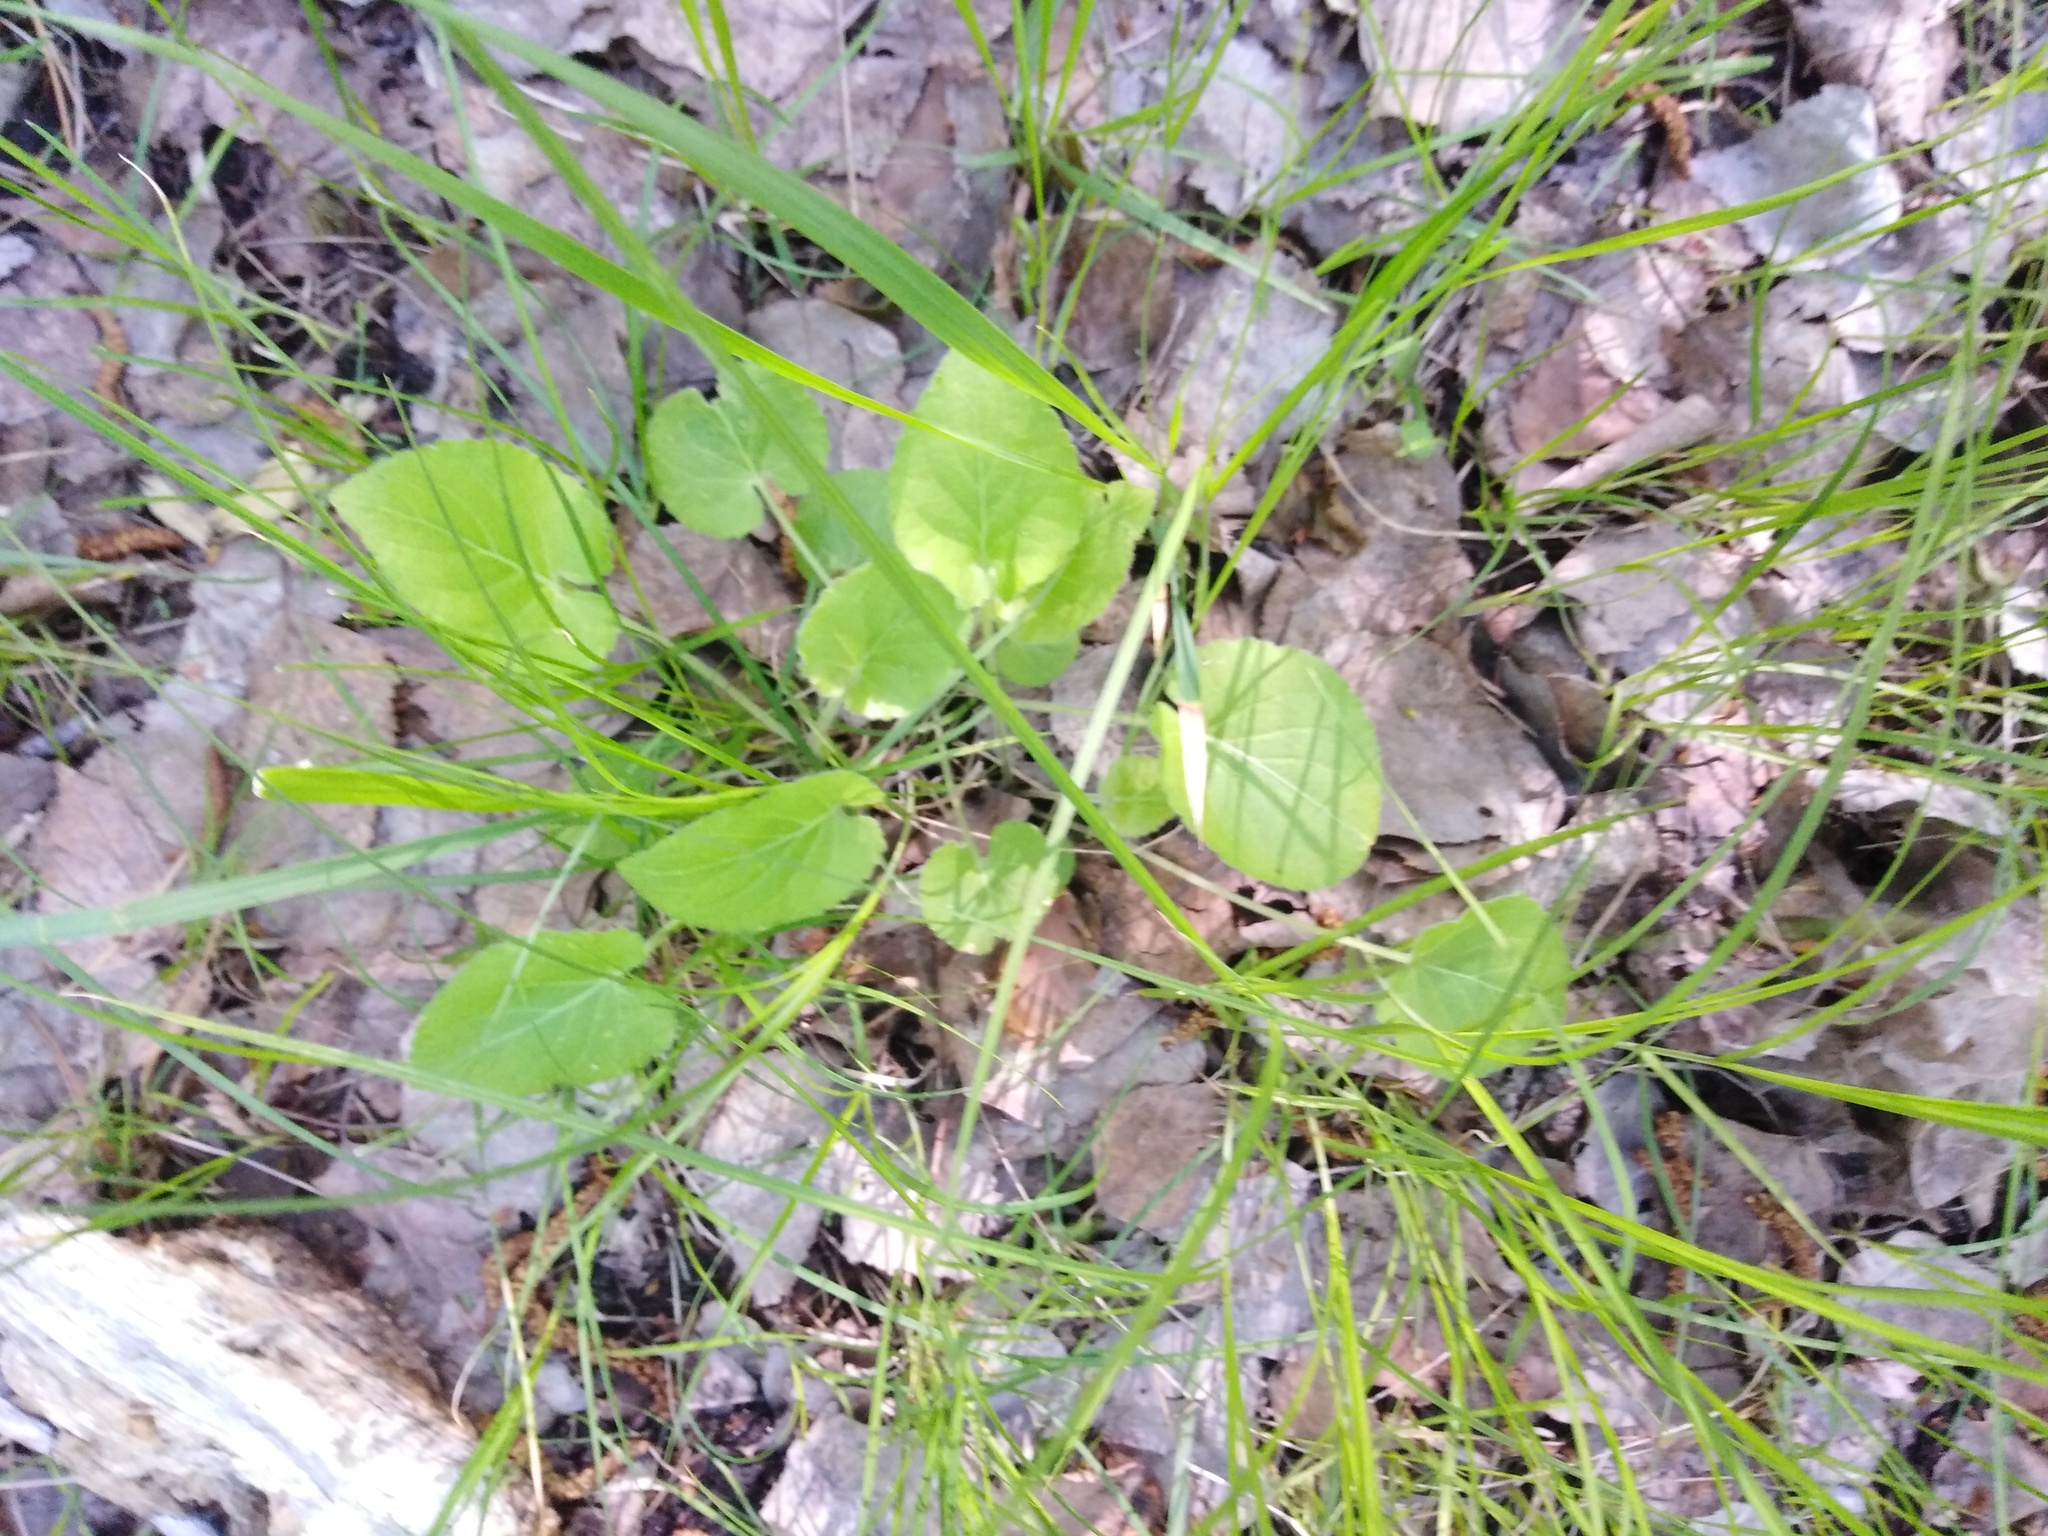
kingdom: Plantae
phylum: Tracheophyta
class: Magnoliopsida
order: Malpighiales
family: Violaceae
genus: Viola
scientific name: Viola collina
